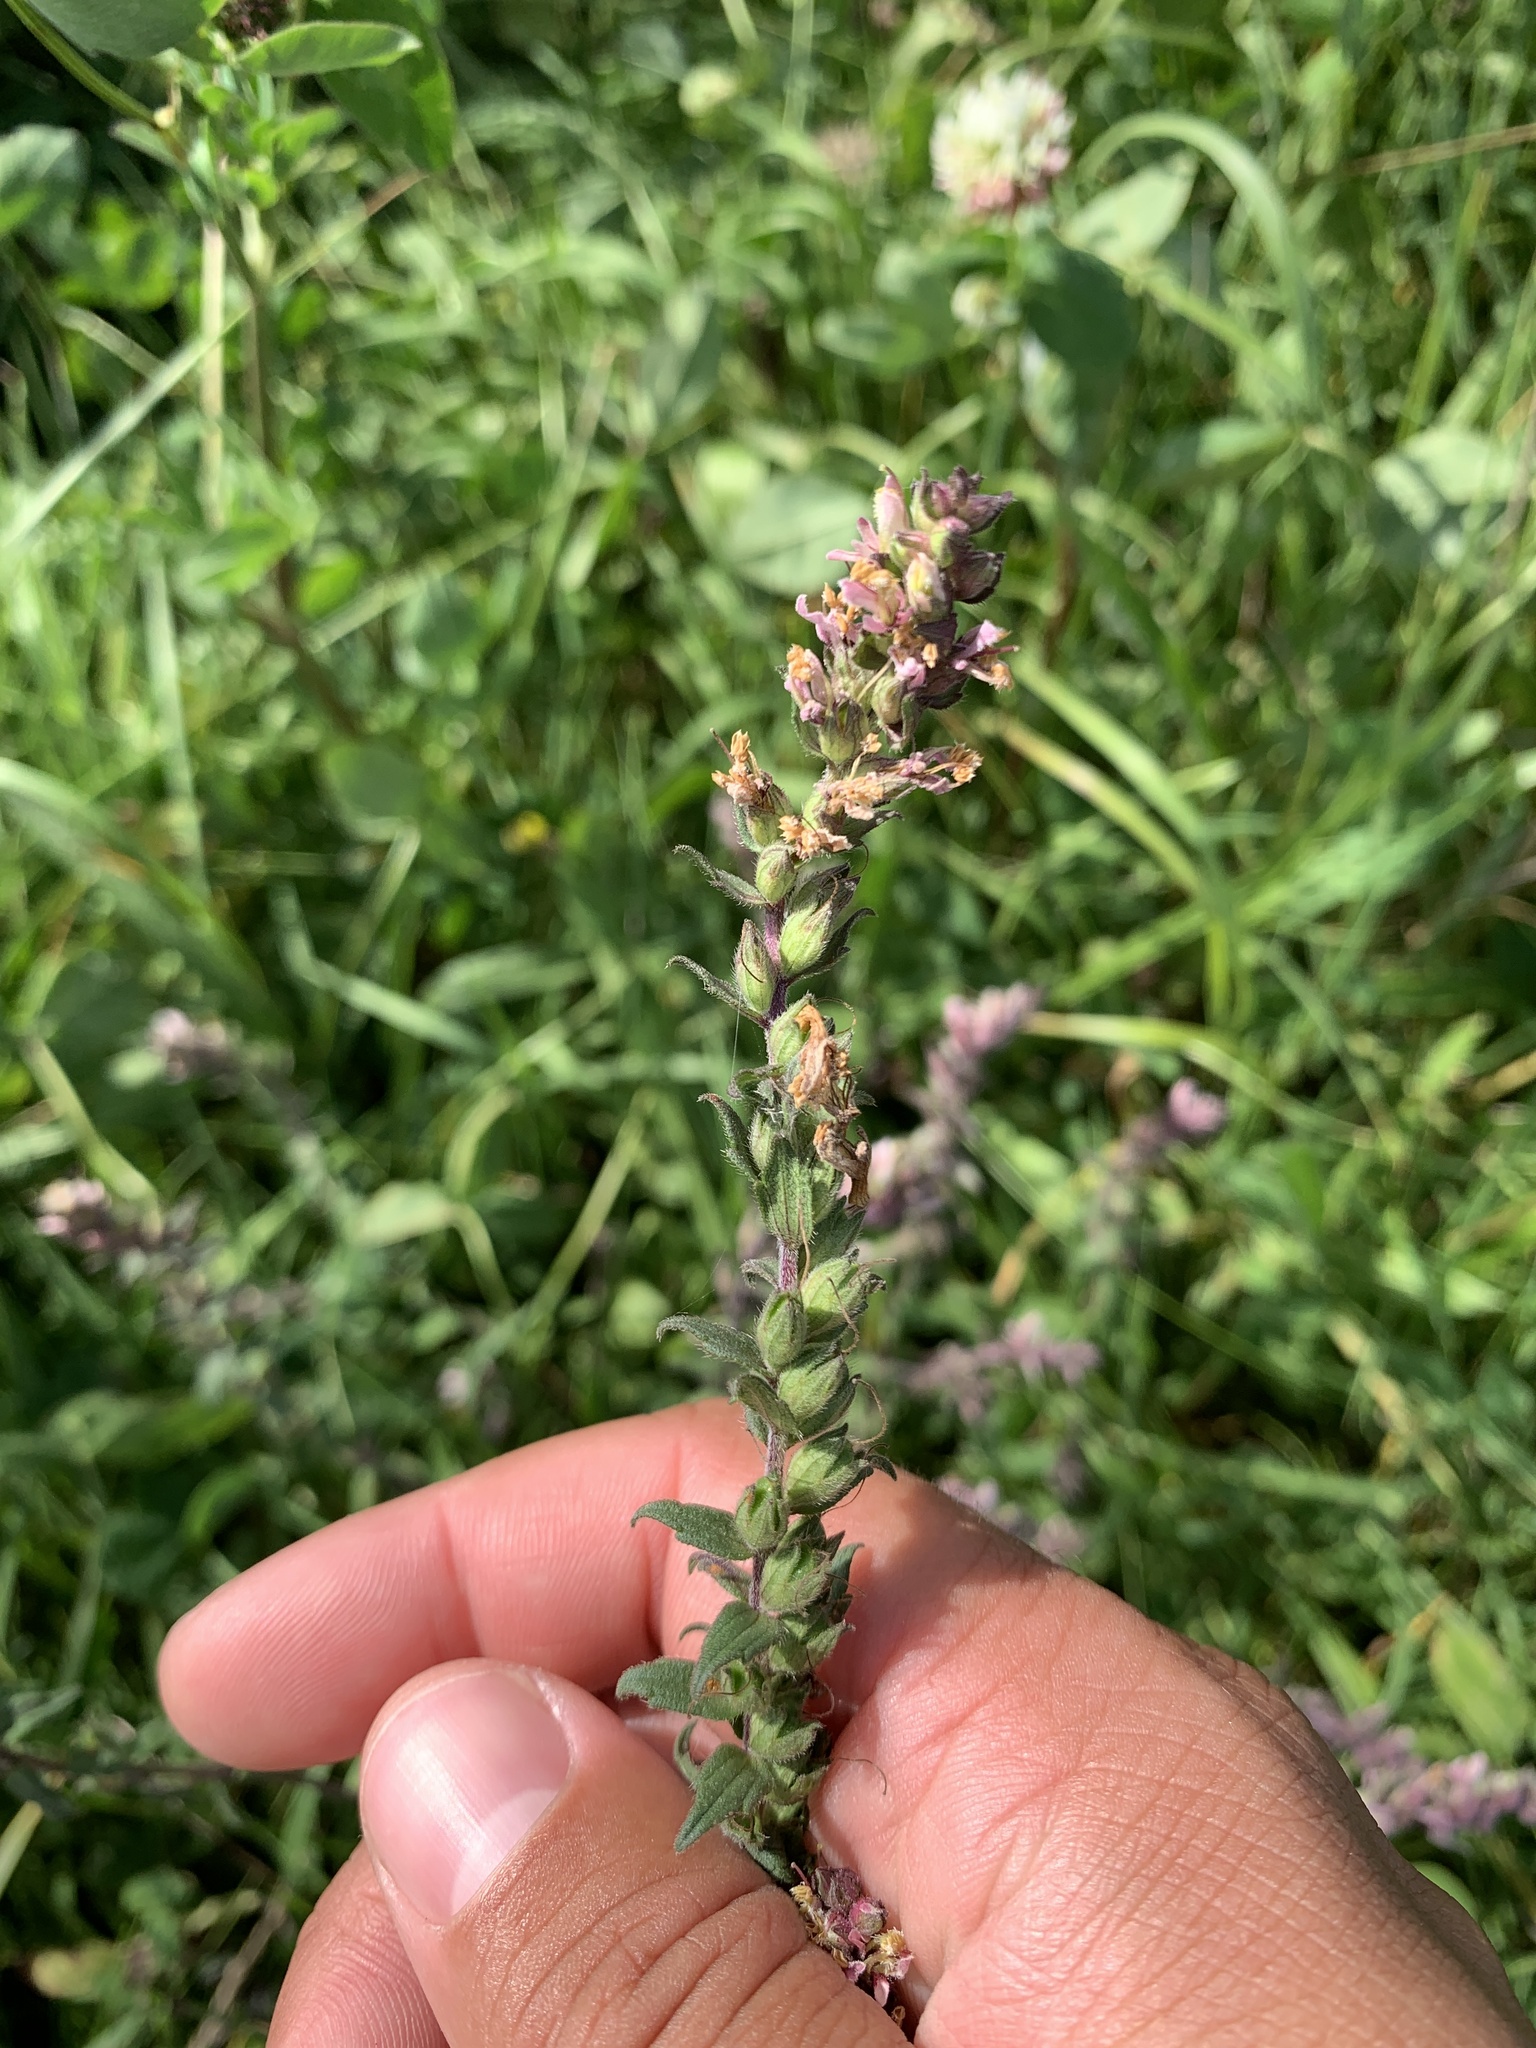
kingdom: Plantae
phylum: Tracheophyta
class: Magnoliopsida
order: Lamiales
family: Orobanchaceae
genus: Odontites
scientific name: Odontites vulgaris
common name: Broomrape
